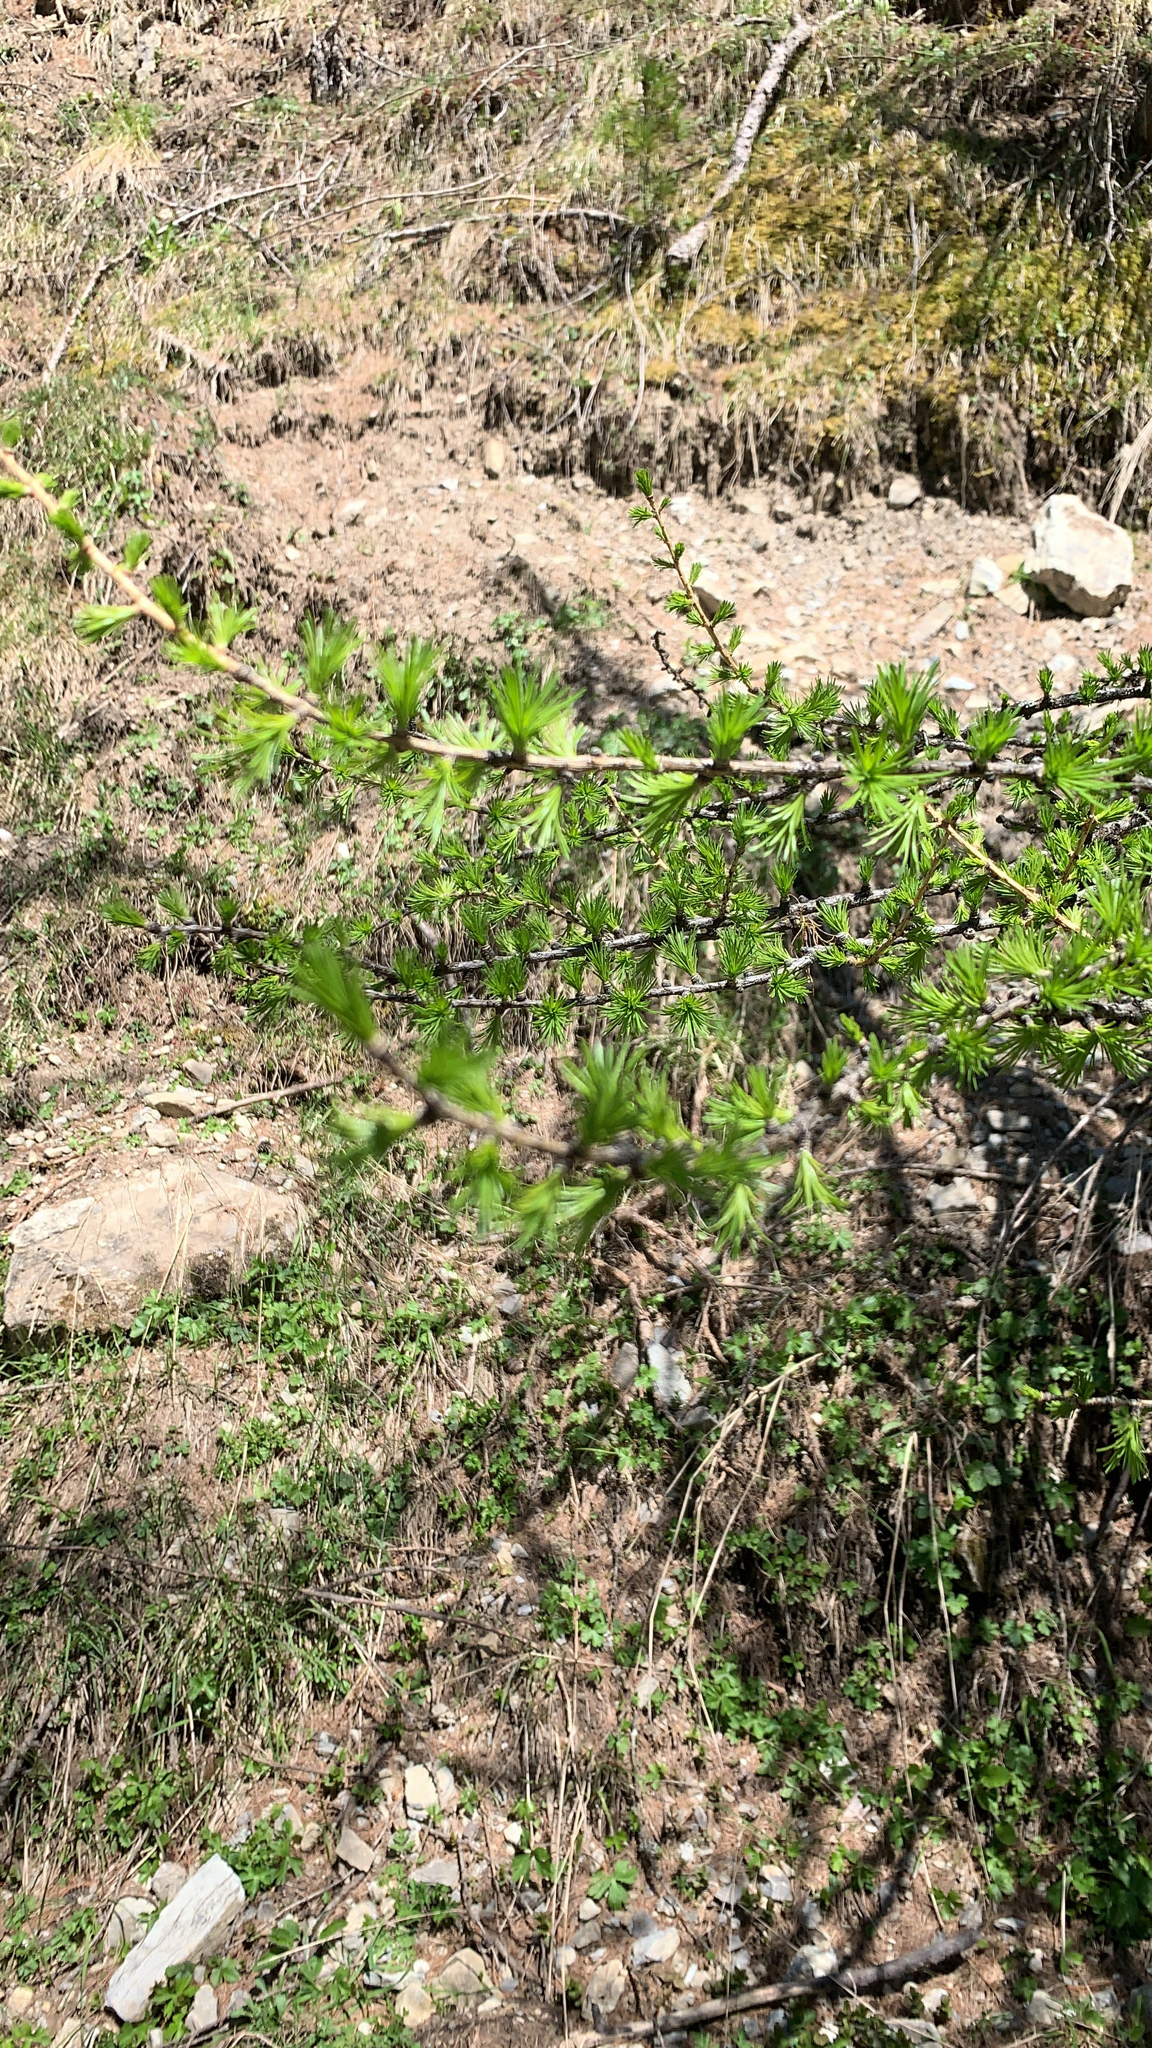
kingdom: Plantae
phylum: Tracheophyta
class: Pinopsida
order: Pinales
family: Pinaceae
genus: Larix
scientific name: Larix decidua
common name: European larch
